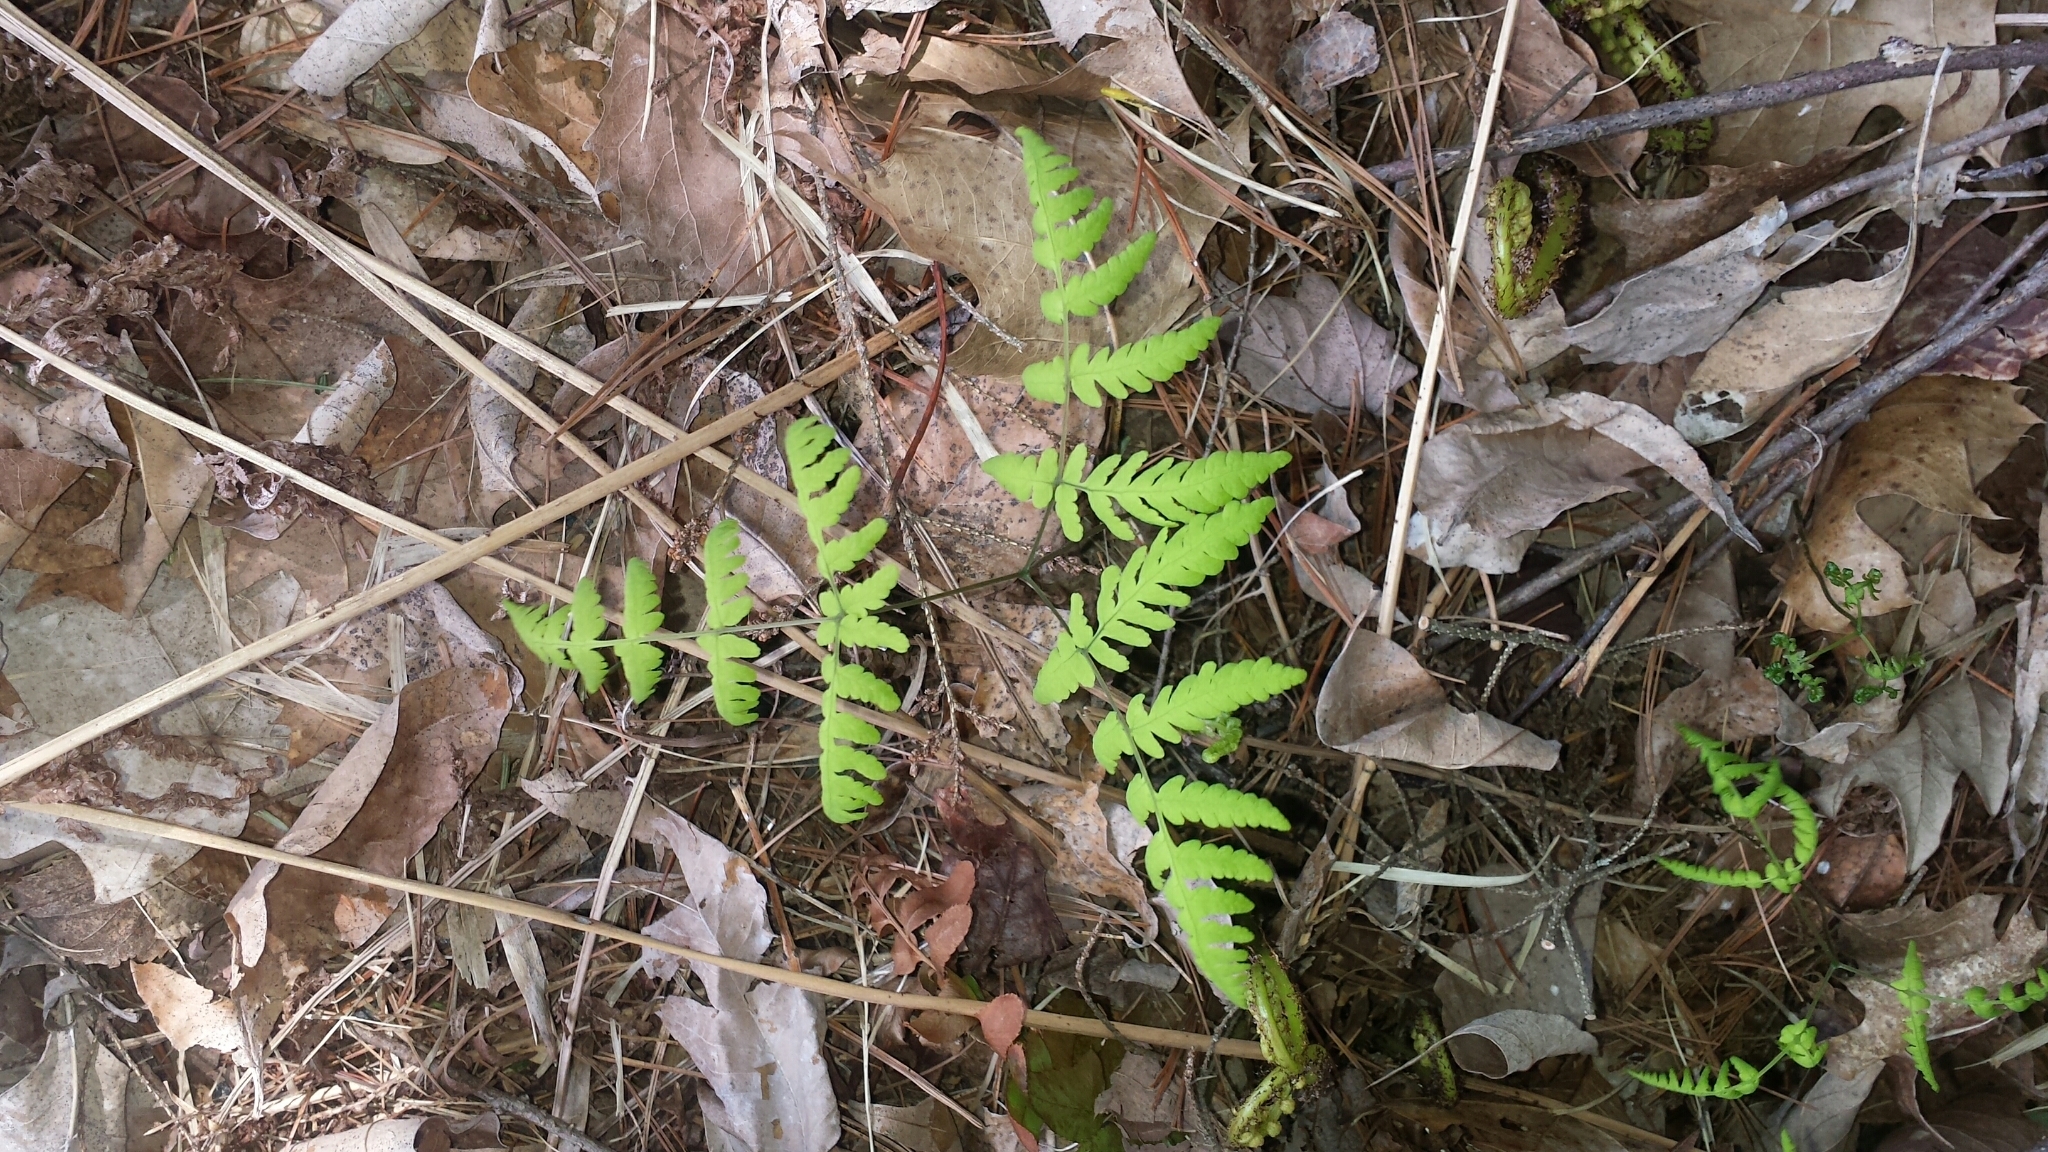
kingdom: Plantae
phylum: Tracheophyta
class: Polypodiopsida
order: Polypodiales
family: Cystopteridaceae
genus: Gymnocarpium
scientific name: Gymnocarpium dryopteris
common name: Oak fern
